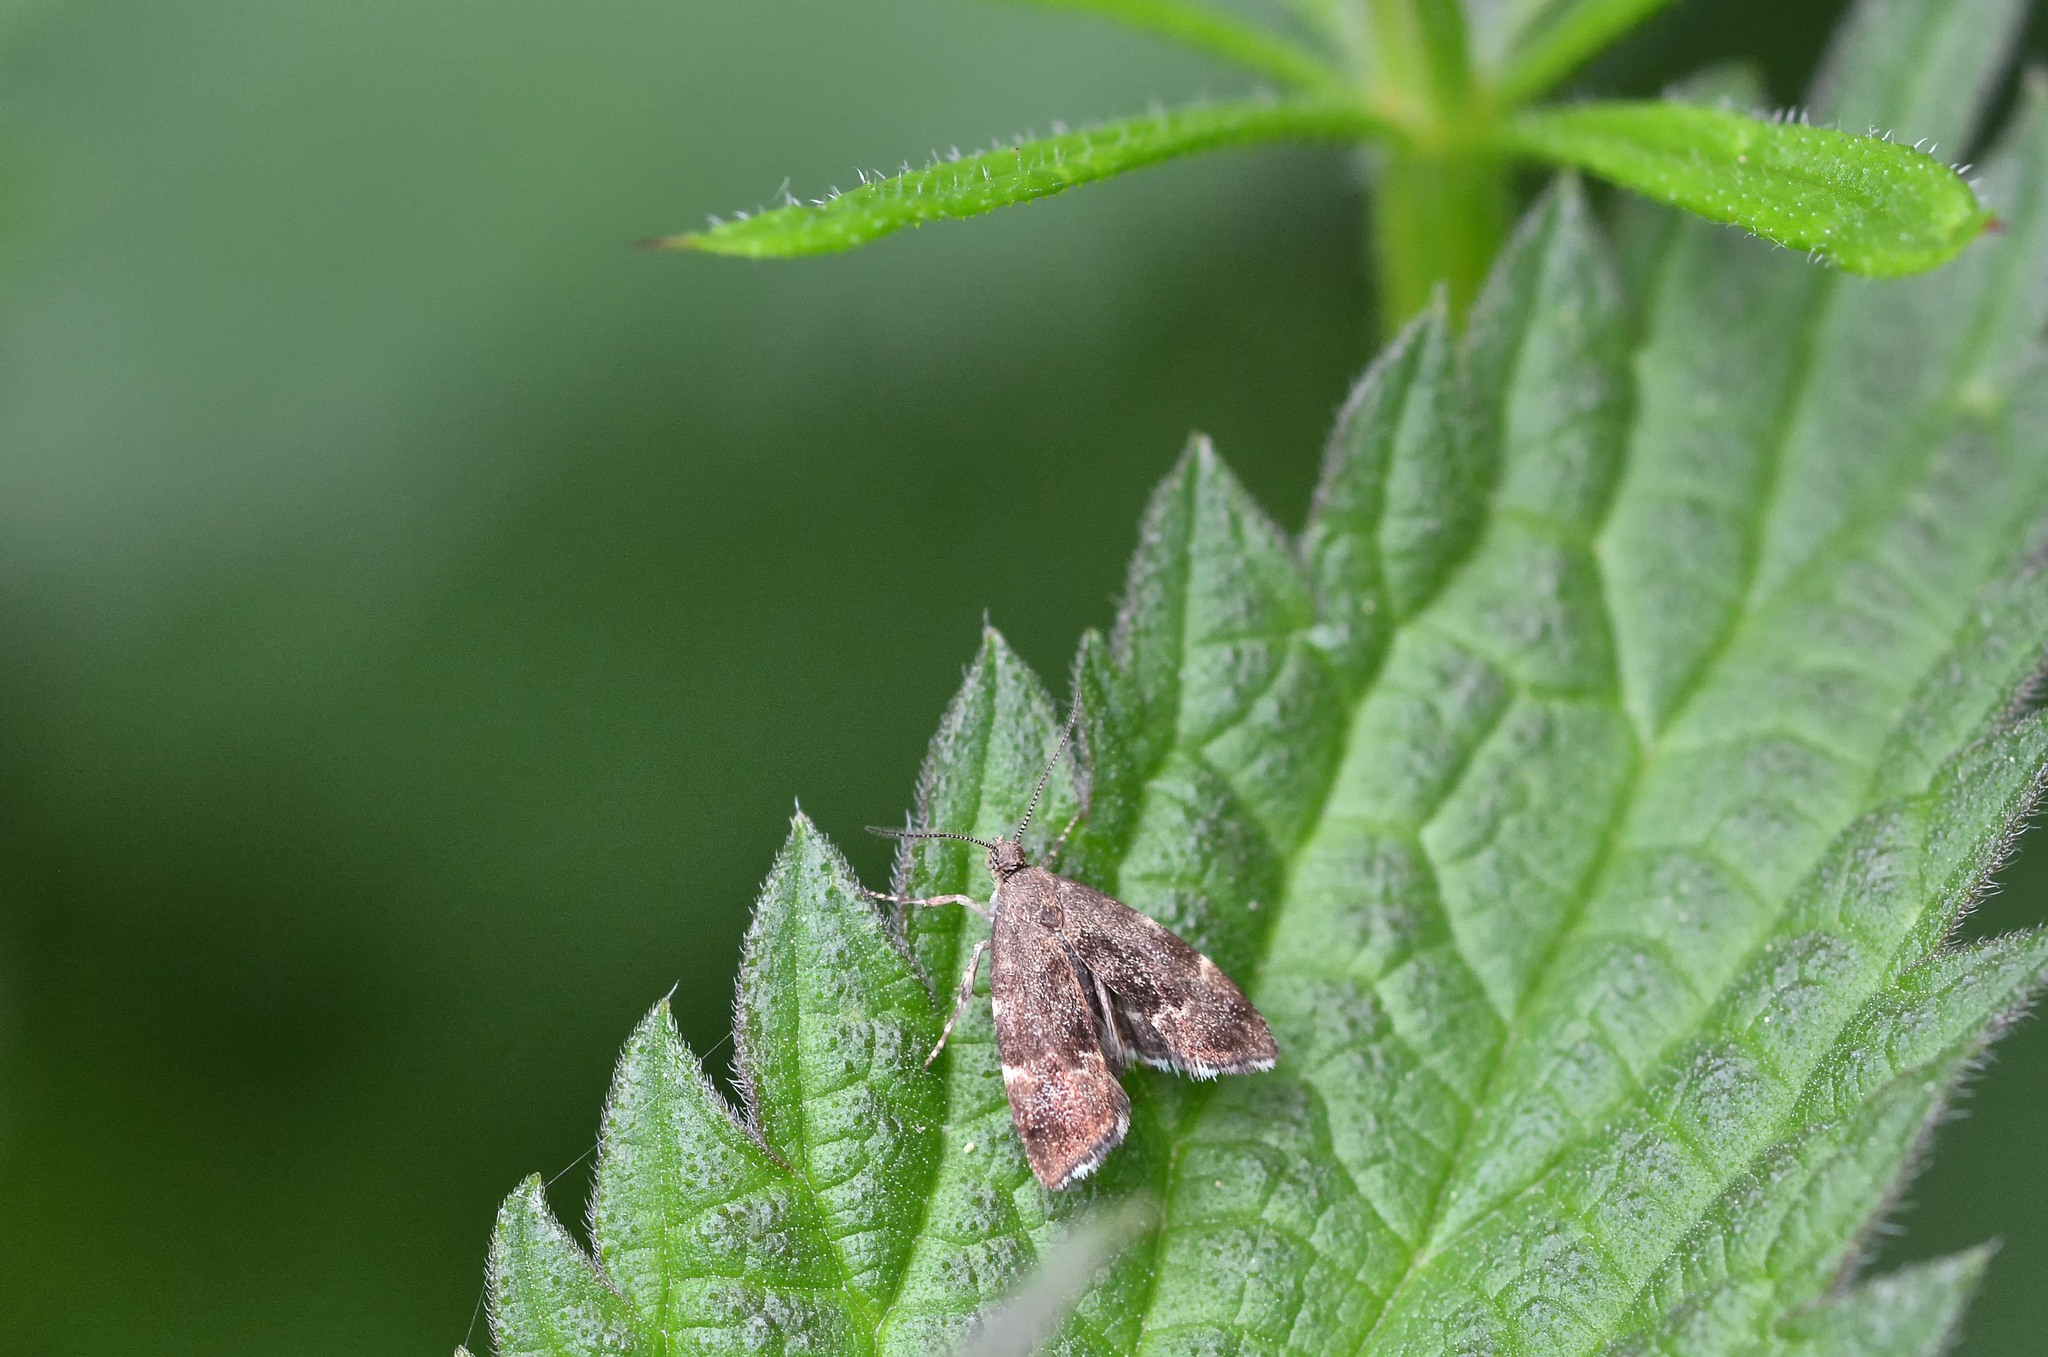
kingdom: Animalia
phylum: Arthropoda
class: Insecta
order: Lepidoptera
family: Choreutidae
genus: Anthophila
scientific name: Anthophila fabriciana
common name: Nettle-tap
